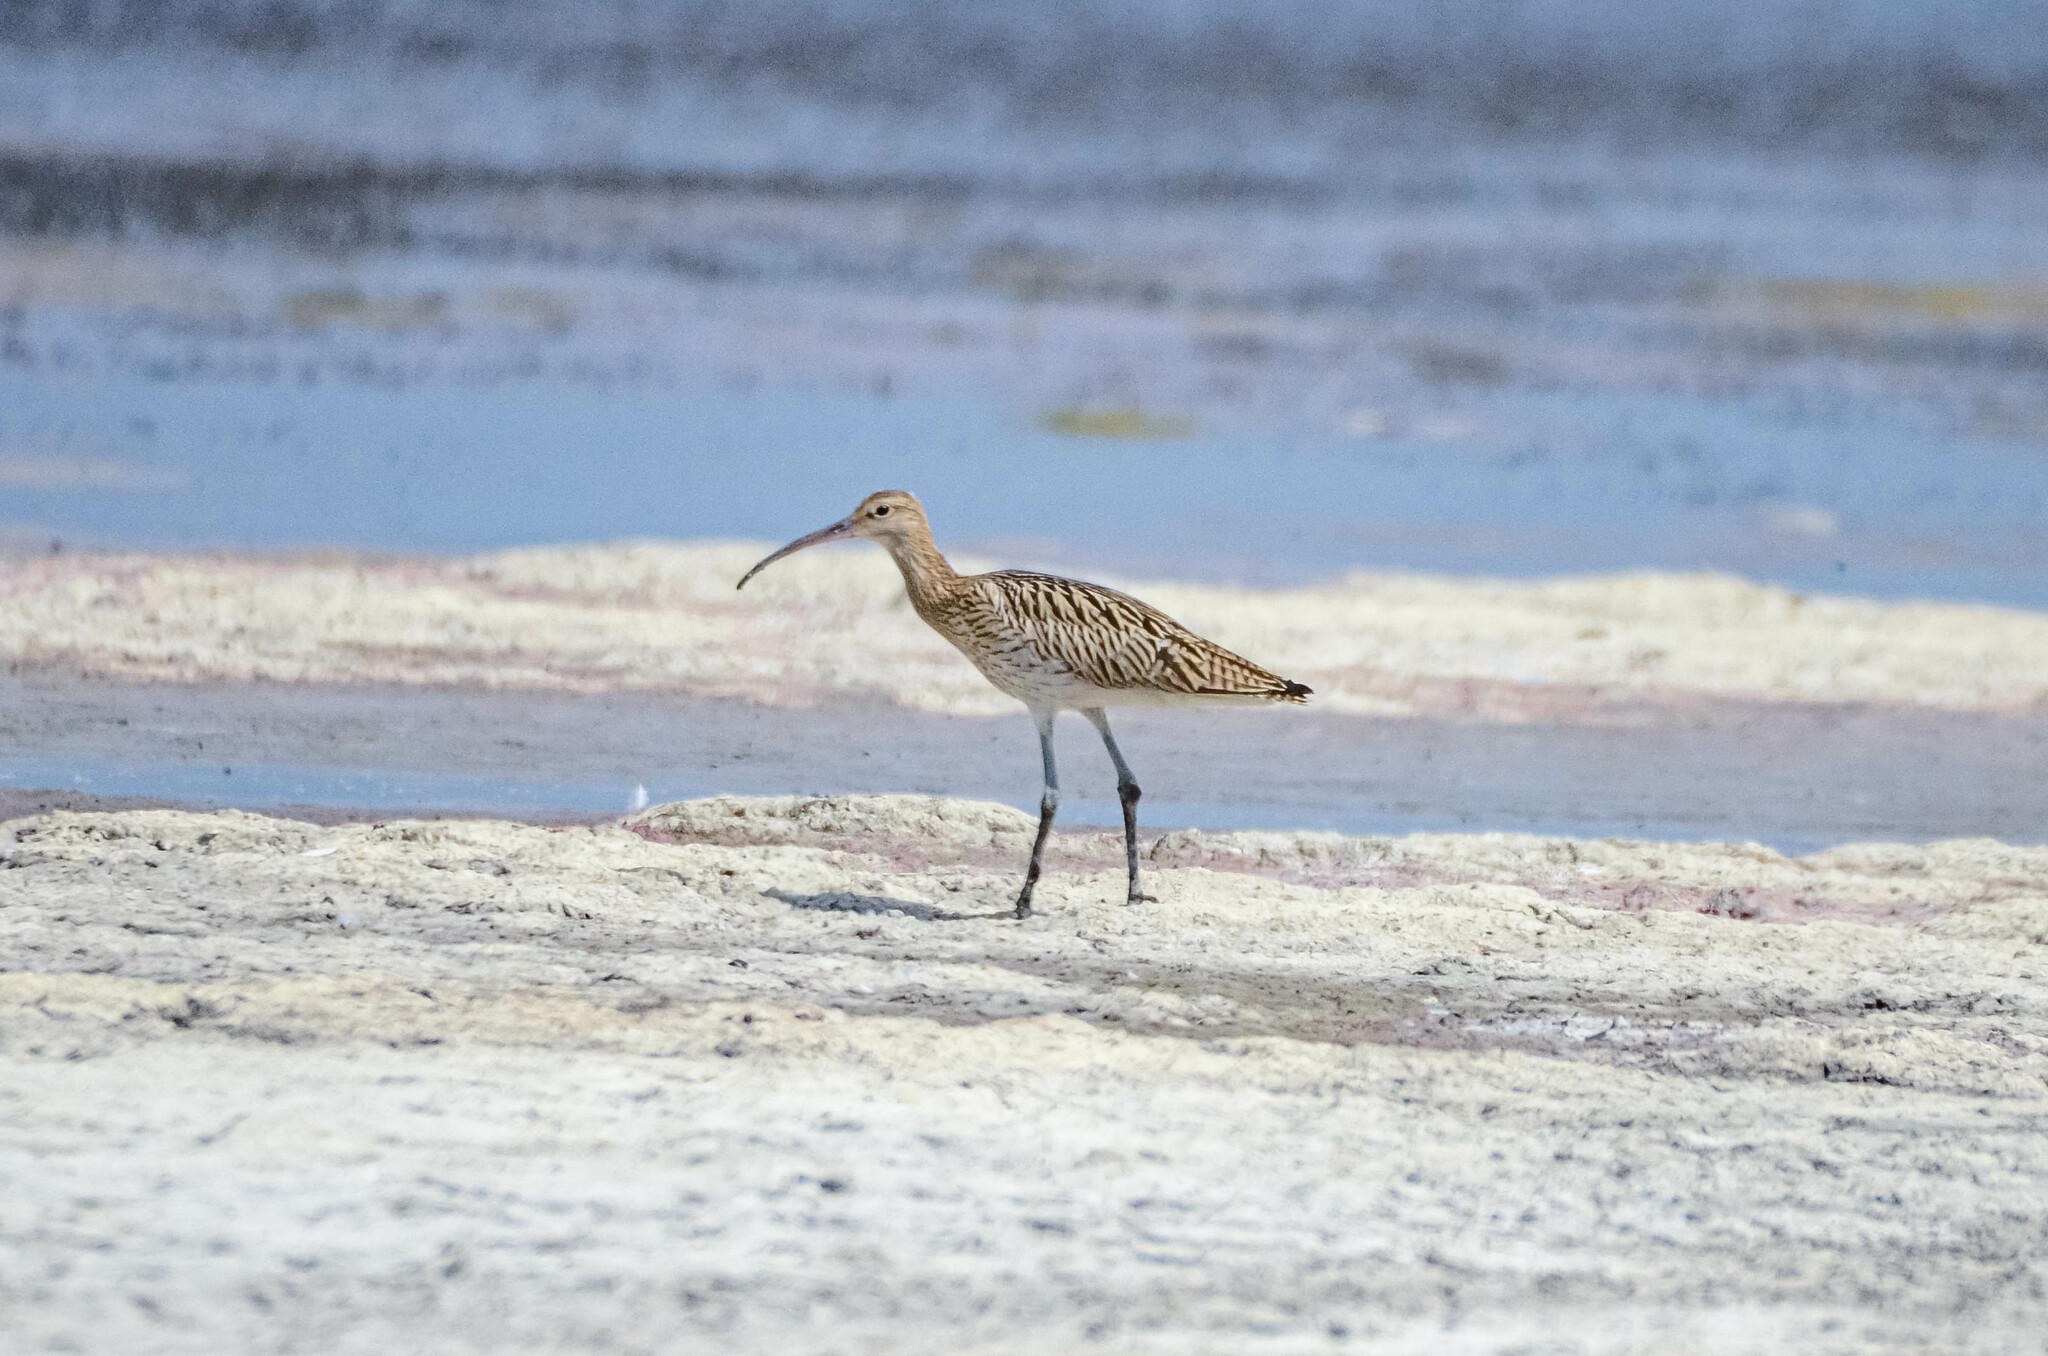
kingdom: Animalia
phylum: Chordata
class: Aves
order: Charadriiformes
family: Scolopacidae
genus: Numenius
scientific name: Numenius arquata
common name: Eurasian curlew
